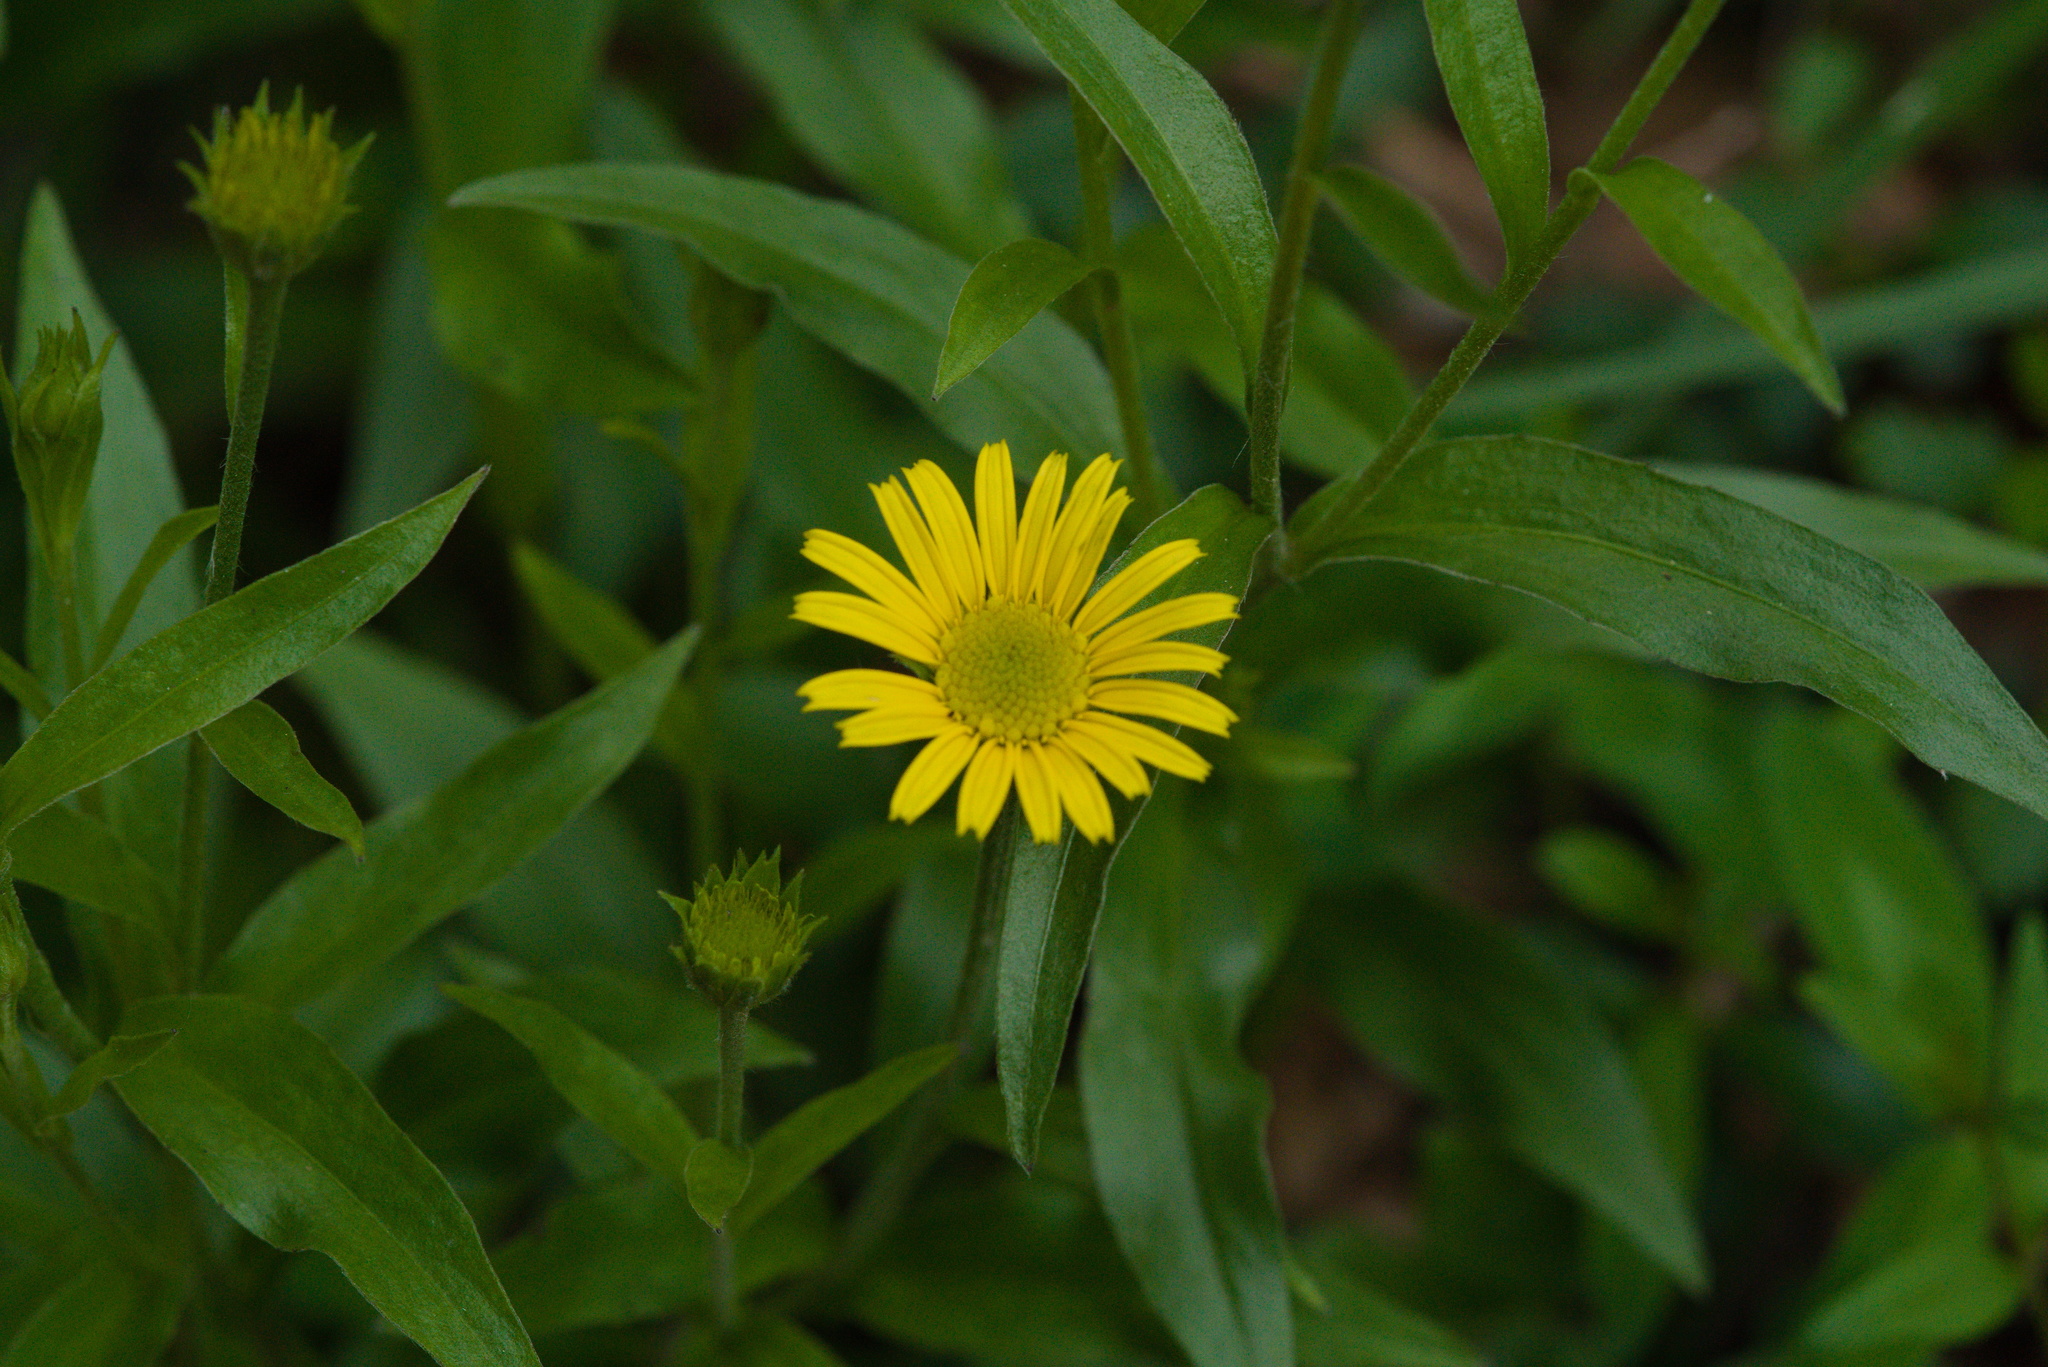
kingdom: Plantae
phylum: Tracheophyta
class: Magnoliopsida
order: Asterales
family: Asteraceae
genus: Buphthalmum
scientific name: Buphthalmum salicifolium
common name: Willow-leaved yellow-oxeye
